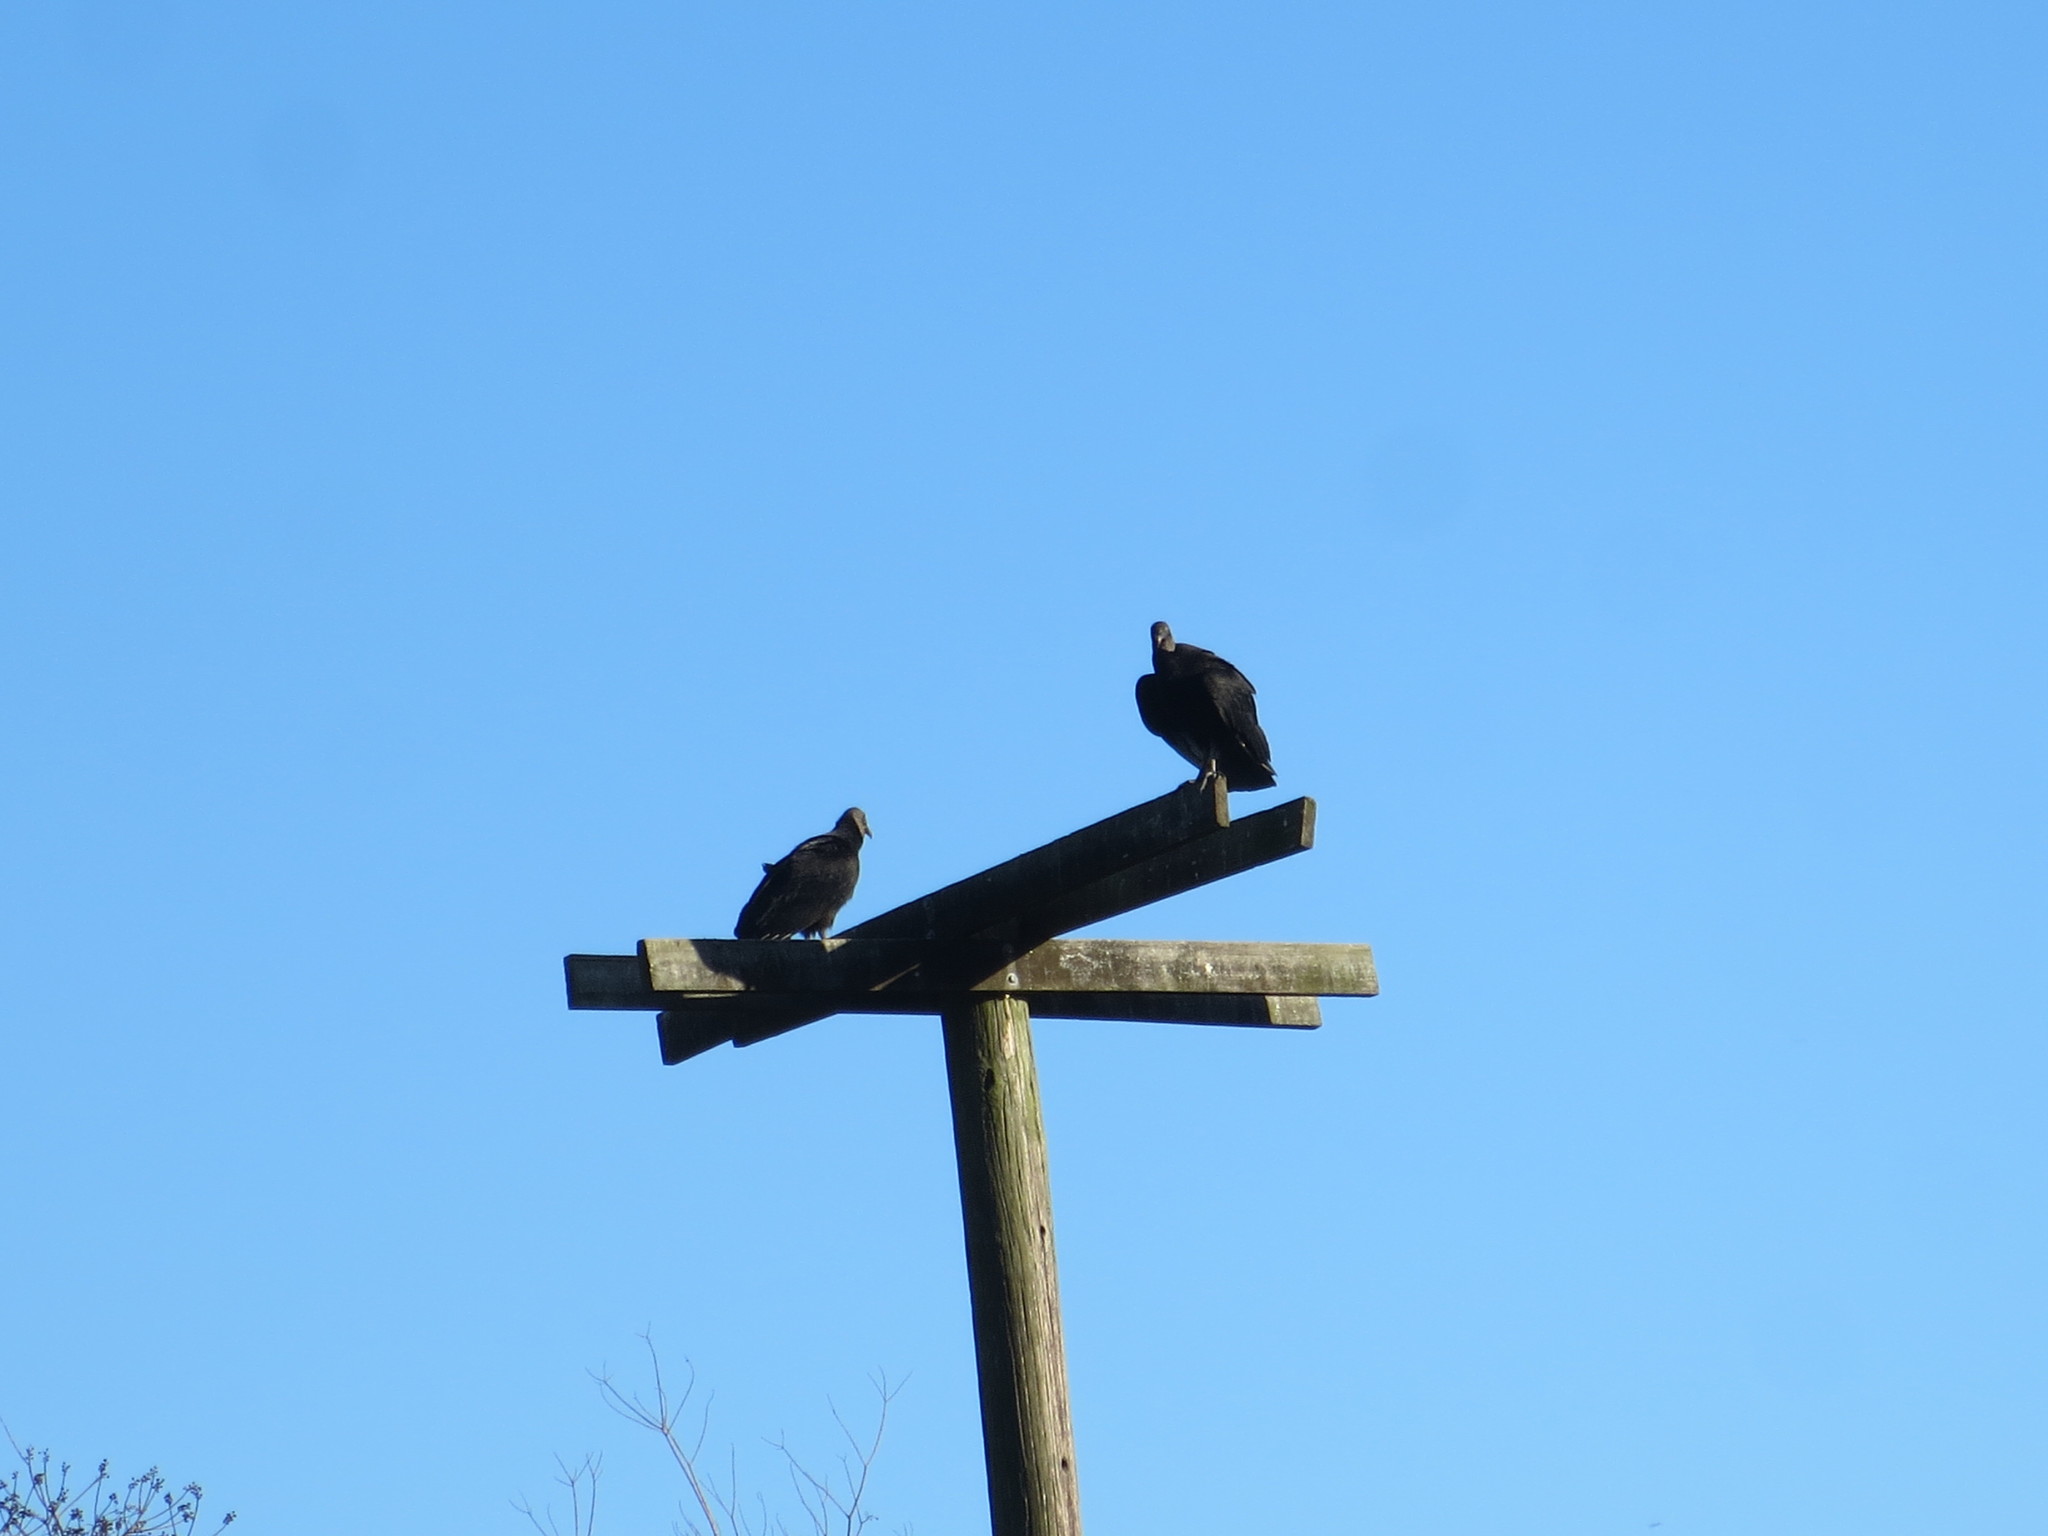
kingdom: Animalia
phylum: Chordata
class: Aves
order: Accipitriformes
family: Cathartidae
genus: Coragyps
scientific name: Coragyps atratus
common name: Black vulture
